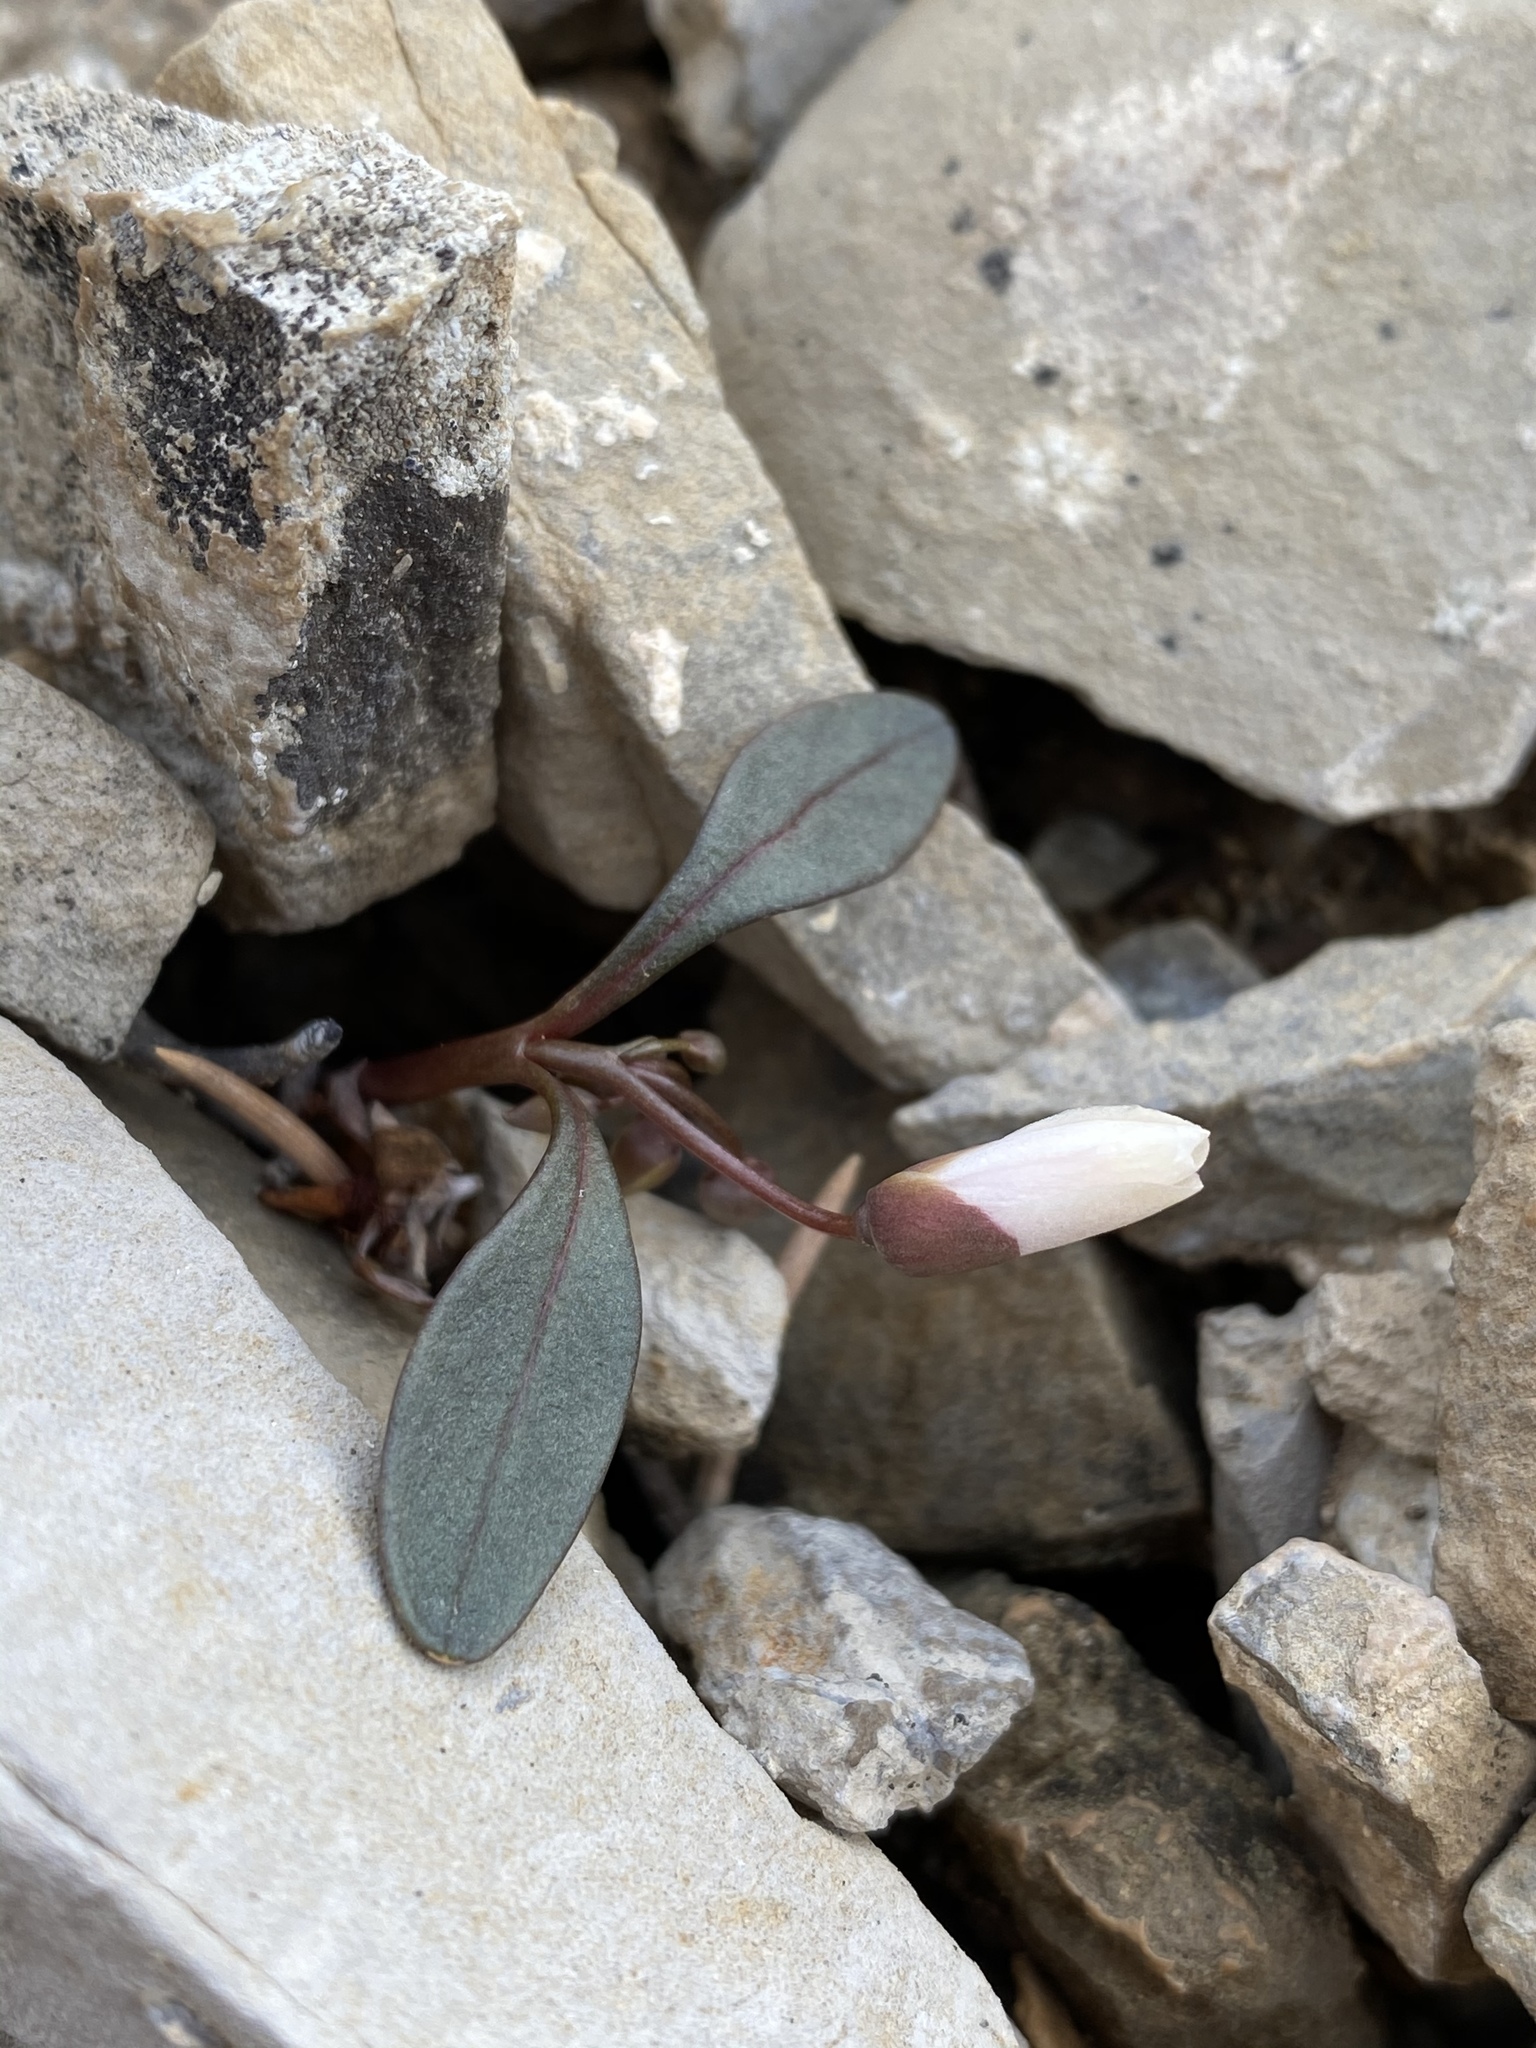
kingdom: Plantae
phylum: Tracheophyta
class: Magnoliopsida
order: Caryophyllales
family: Montiaceae
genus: Claytonia
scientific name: Claytonia panamintensis
